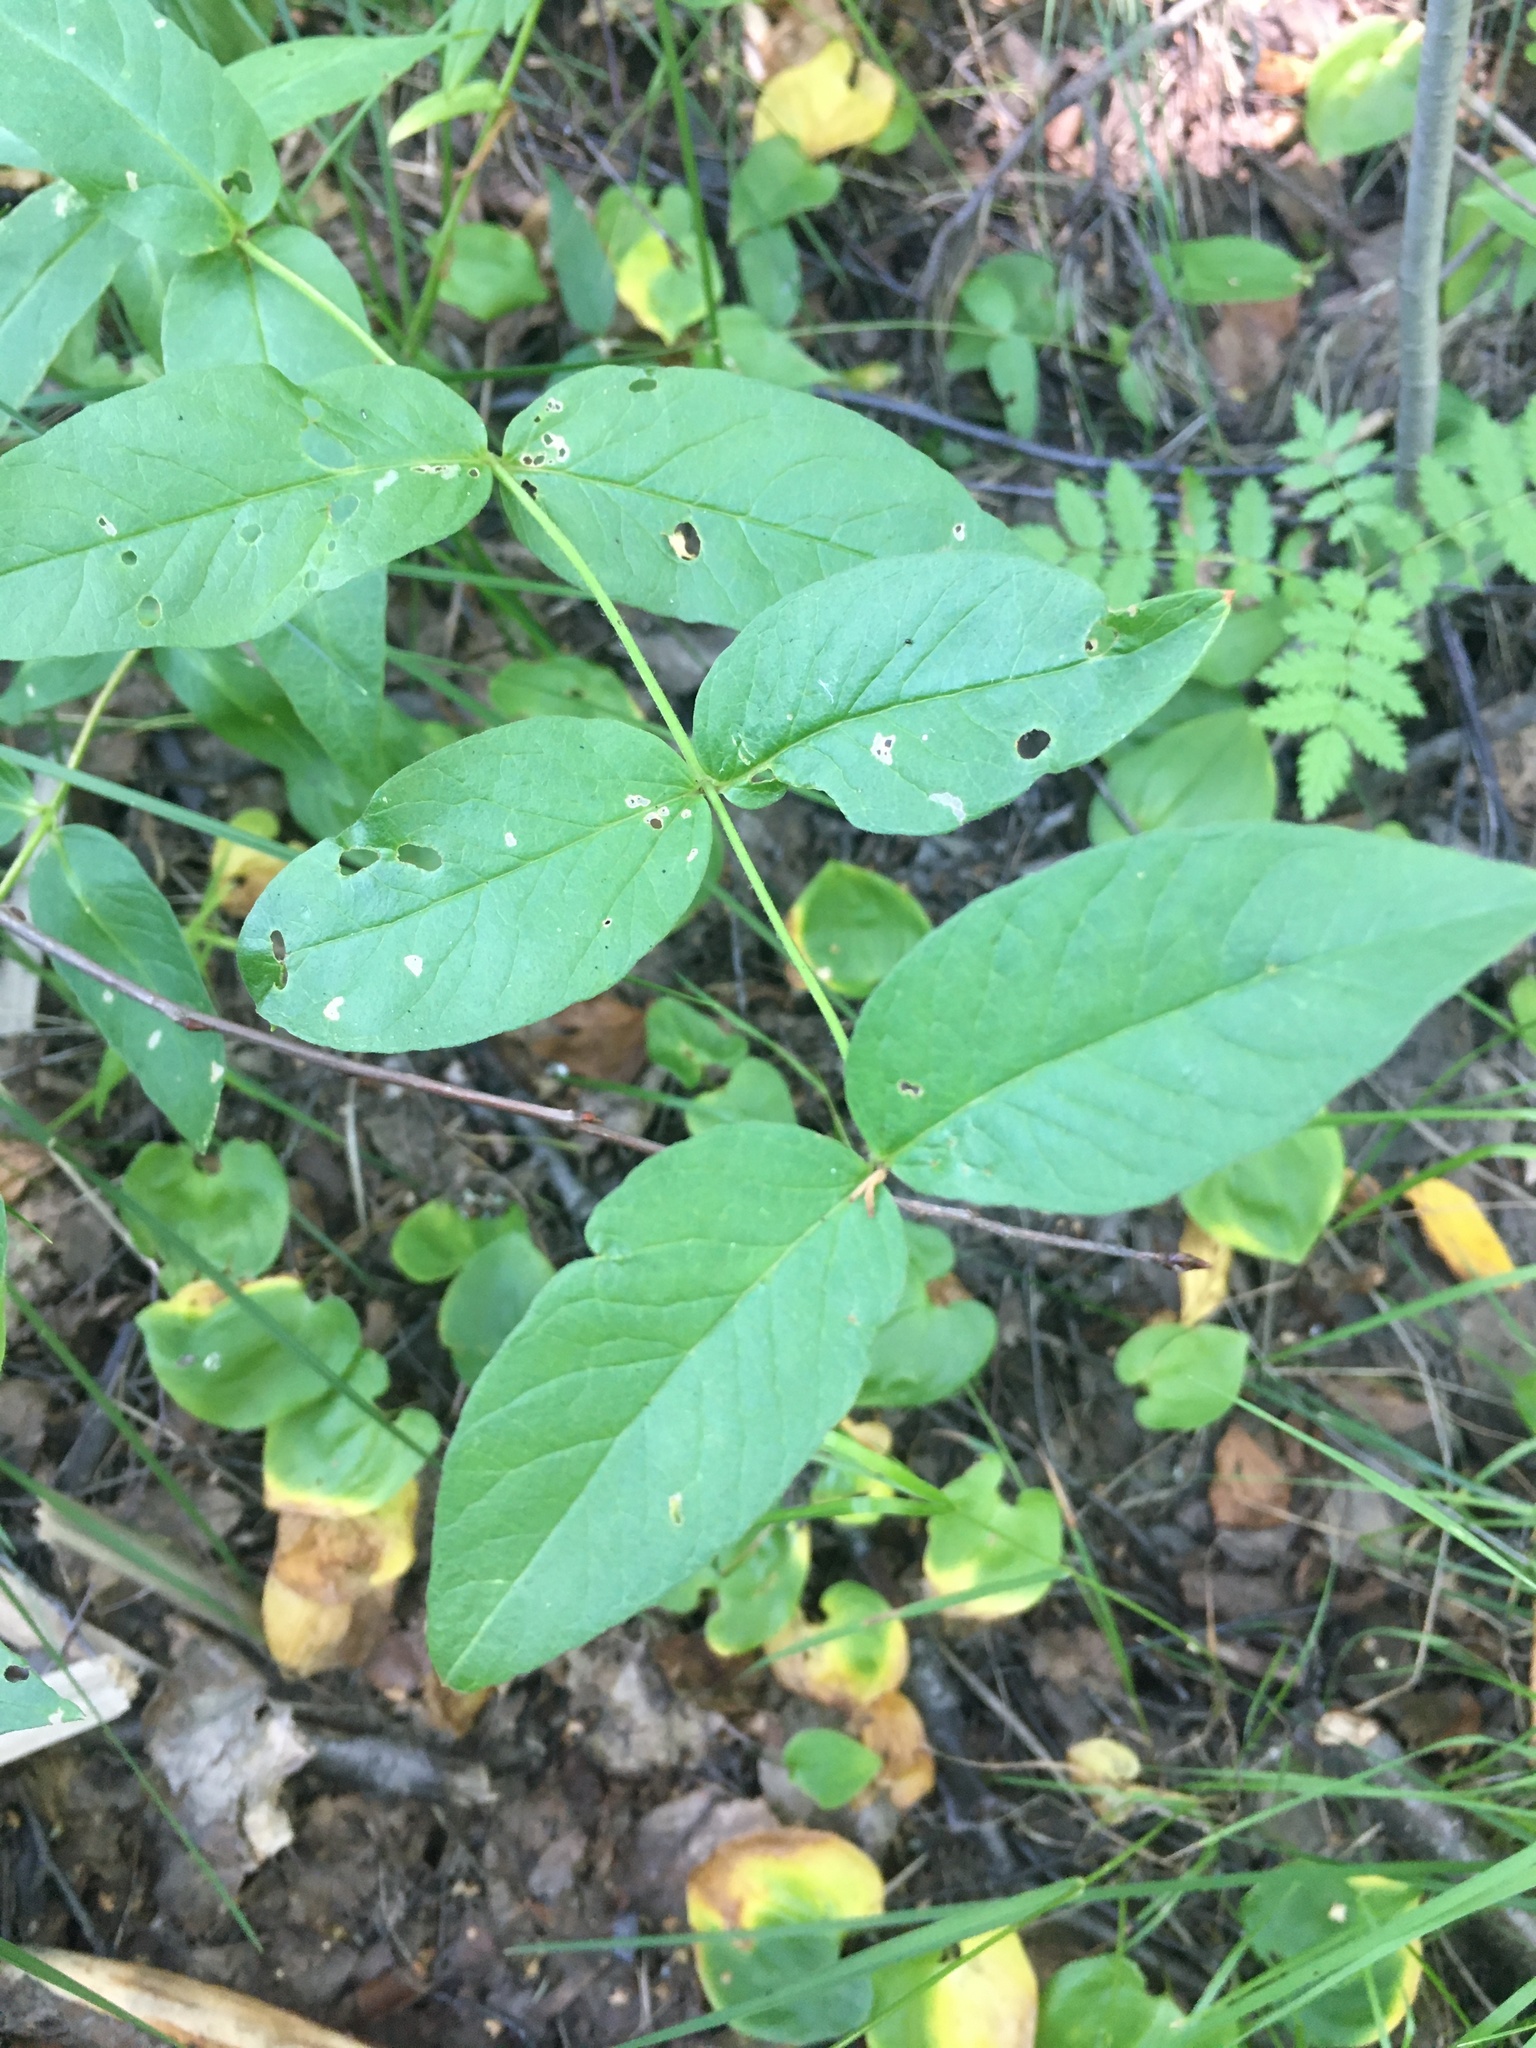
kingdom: Plantae
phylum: Tracheophyta
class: Magnoliopsida
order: Ericales
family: Primulaceae
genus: Lysimachia
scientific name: Lysimachia vulgaris
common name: Yellow loosestrife
